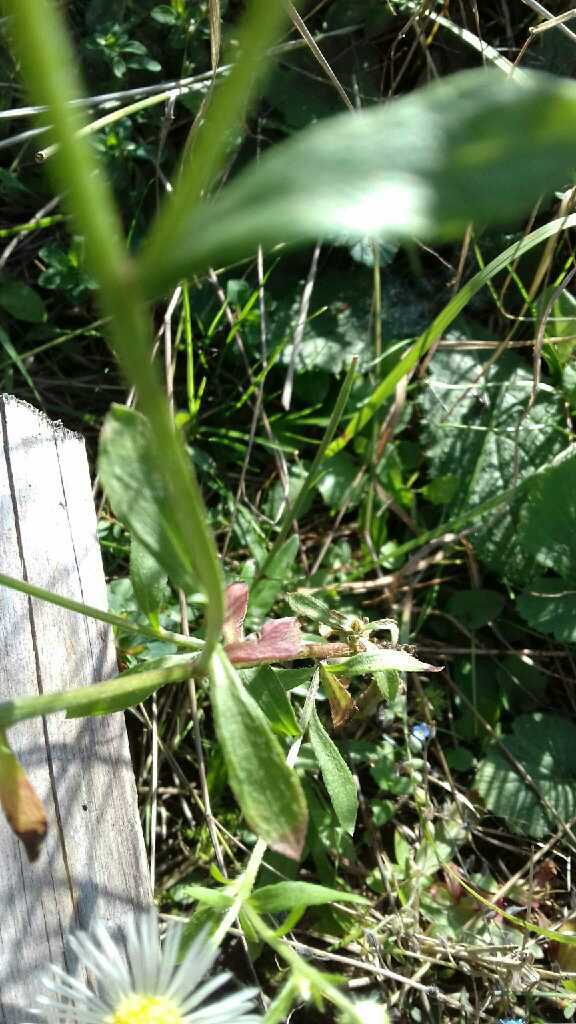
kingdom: Plantae
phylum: Tracheophyta
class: Magnoliopsida
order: Asterales
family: Asteraceae
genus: Erigeron
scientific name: Erigeron annuus
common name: Tall fleabane
